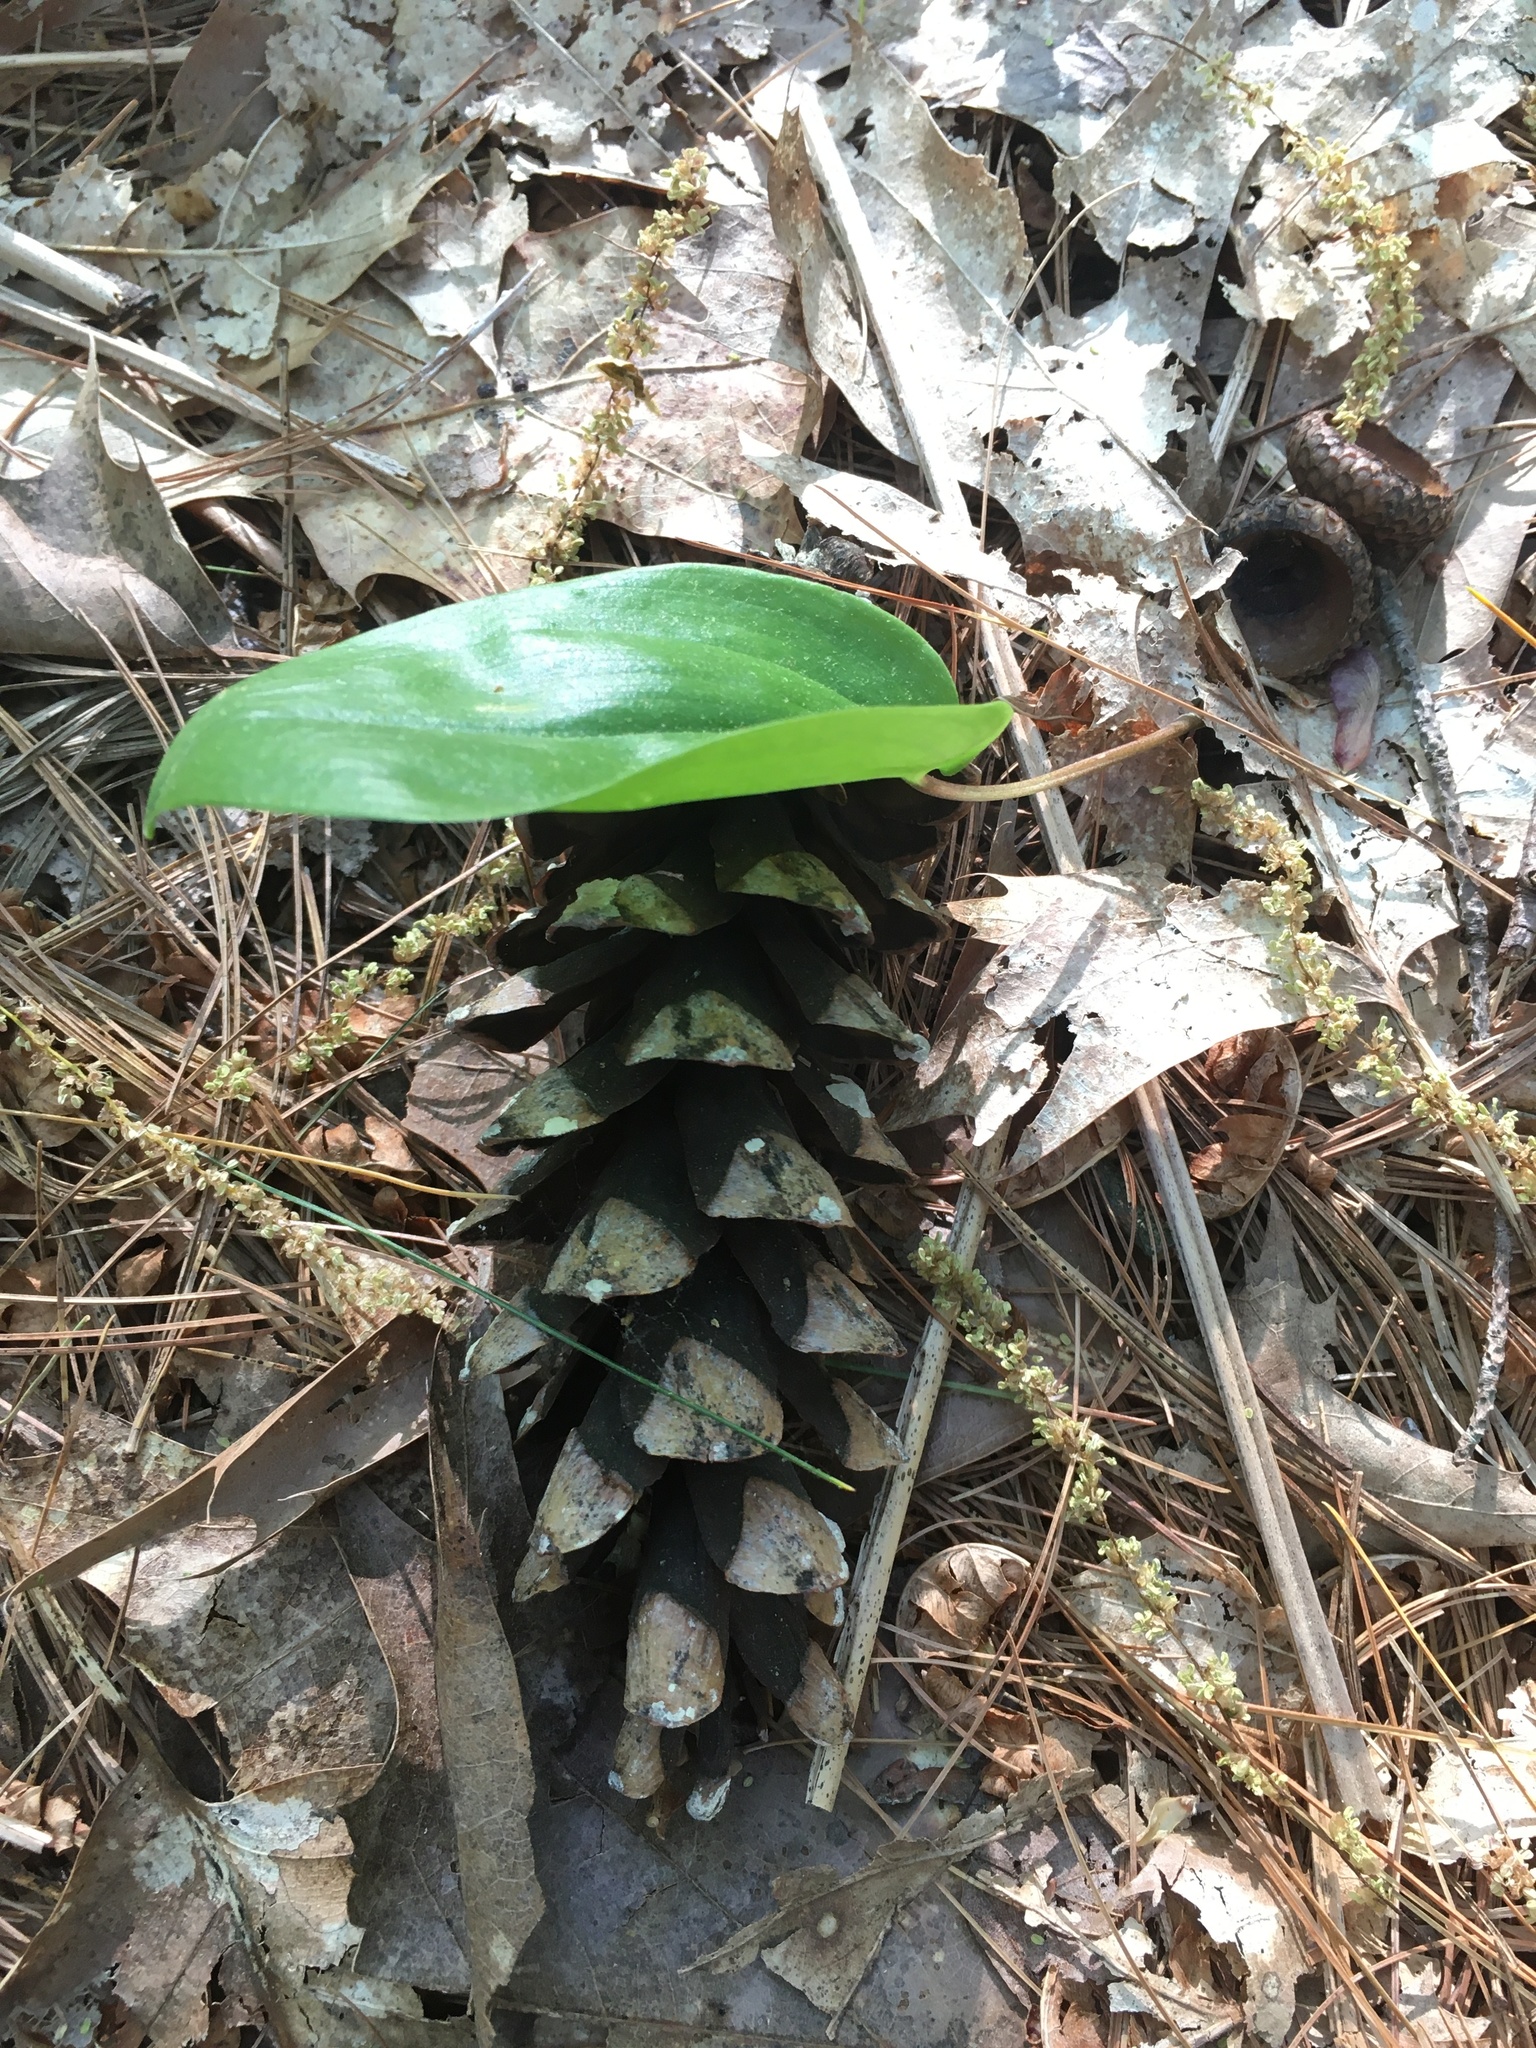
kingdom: Plantae
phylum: Tracheophyta
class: Pinopsida
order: Pinales
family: Pinaceae
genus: Pinus
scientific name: Pinus strobus
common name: Weymouth pine
